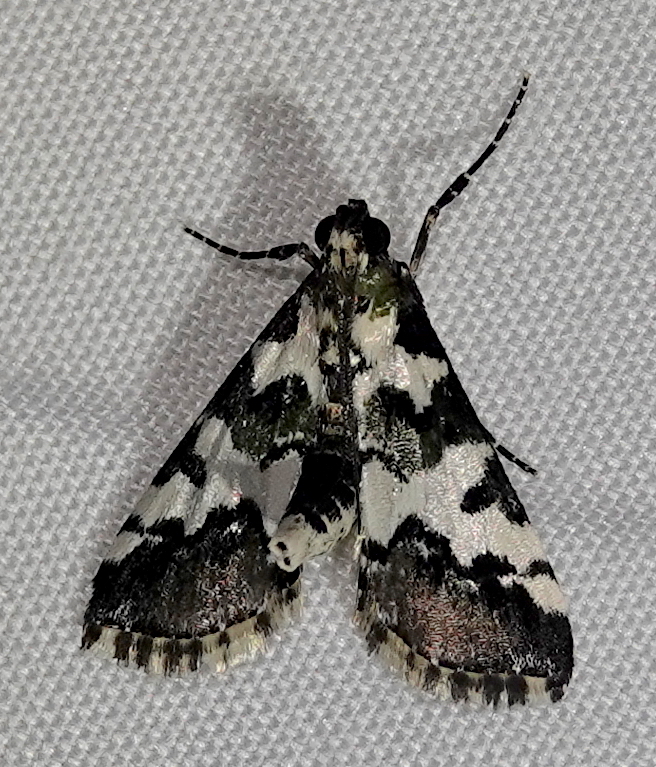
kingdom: Animalia
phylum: Arthropoda
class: Insecta
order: Lepidoptera
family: Pyralidae
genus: Milgithea
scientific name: Milgithea suramisa
